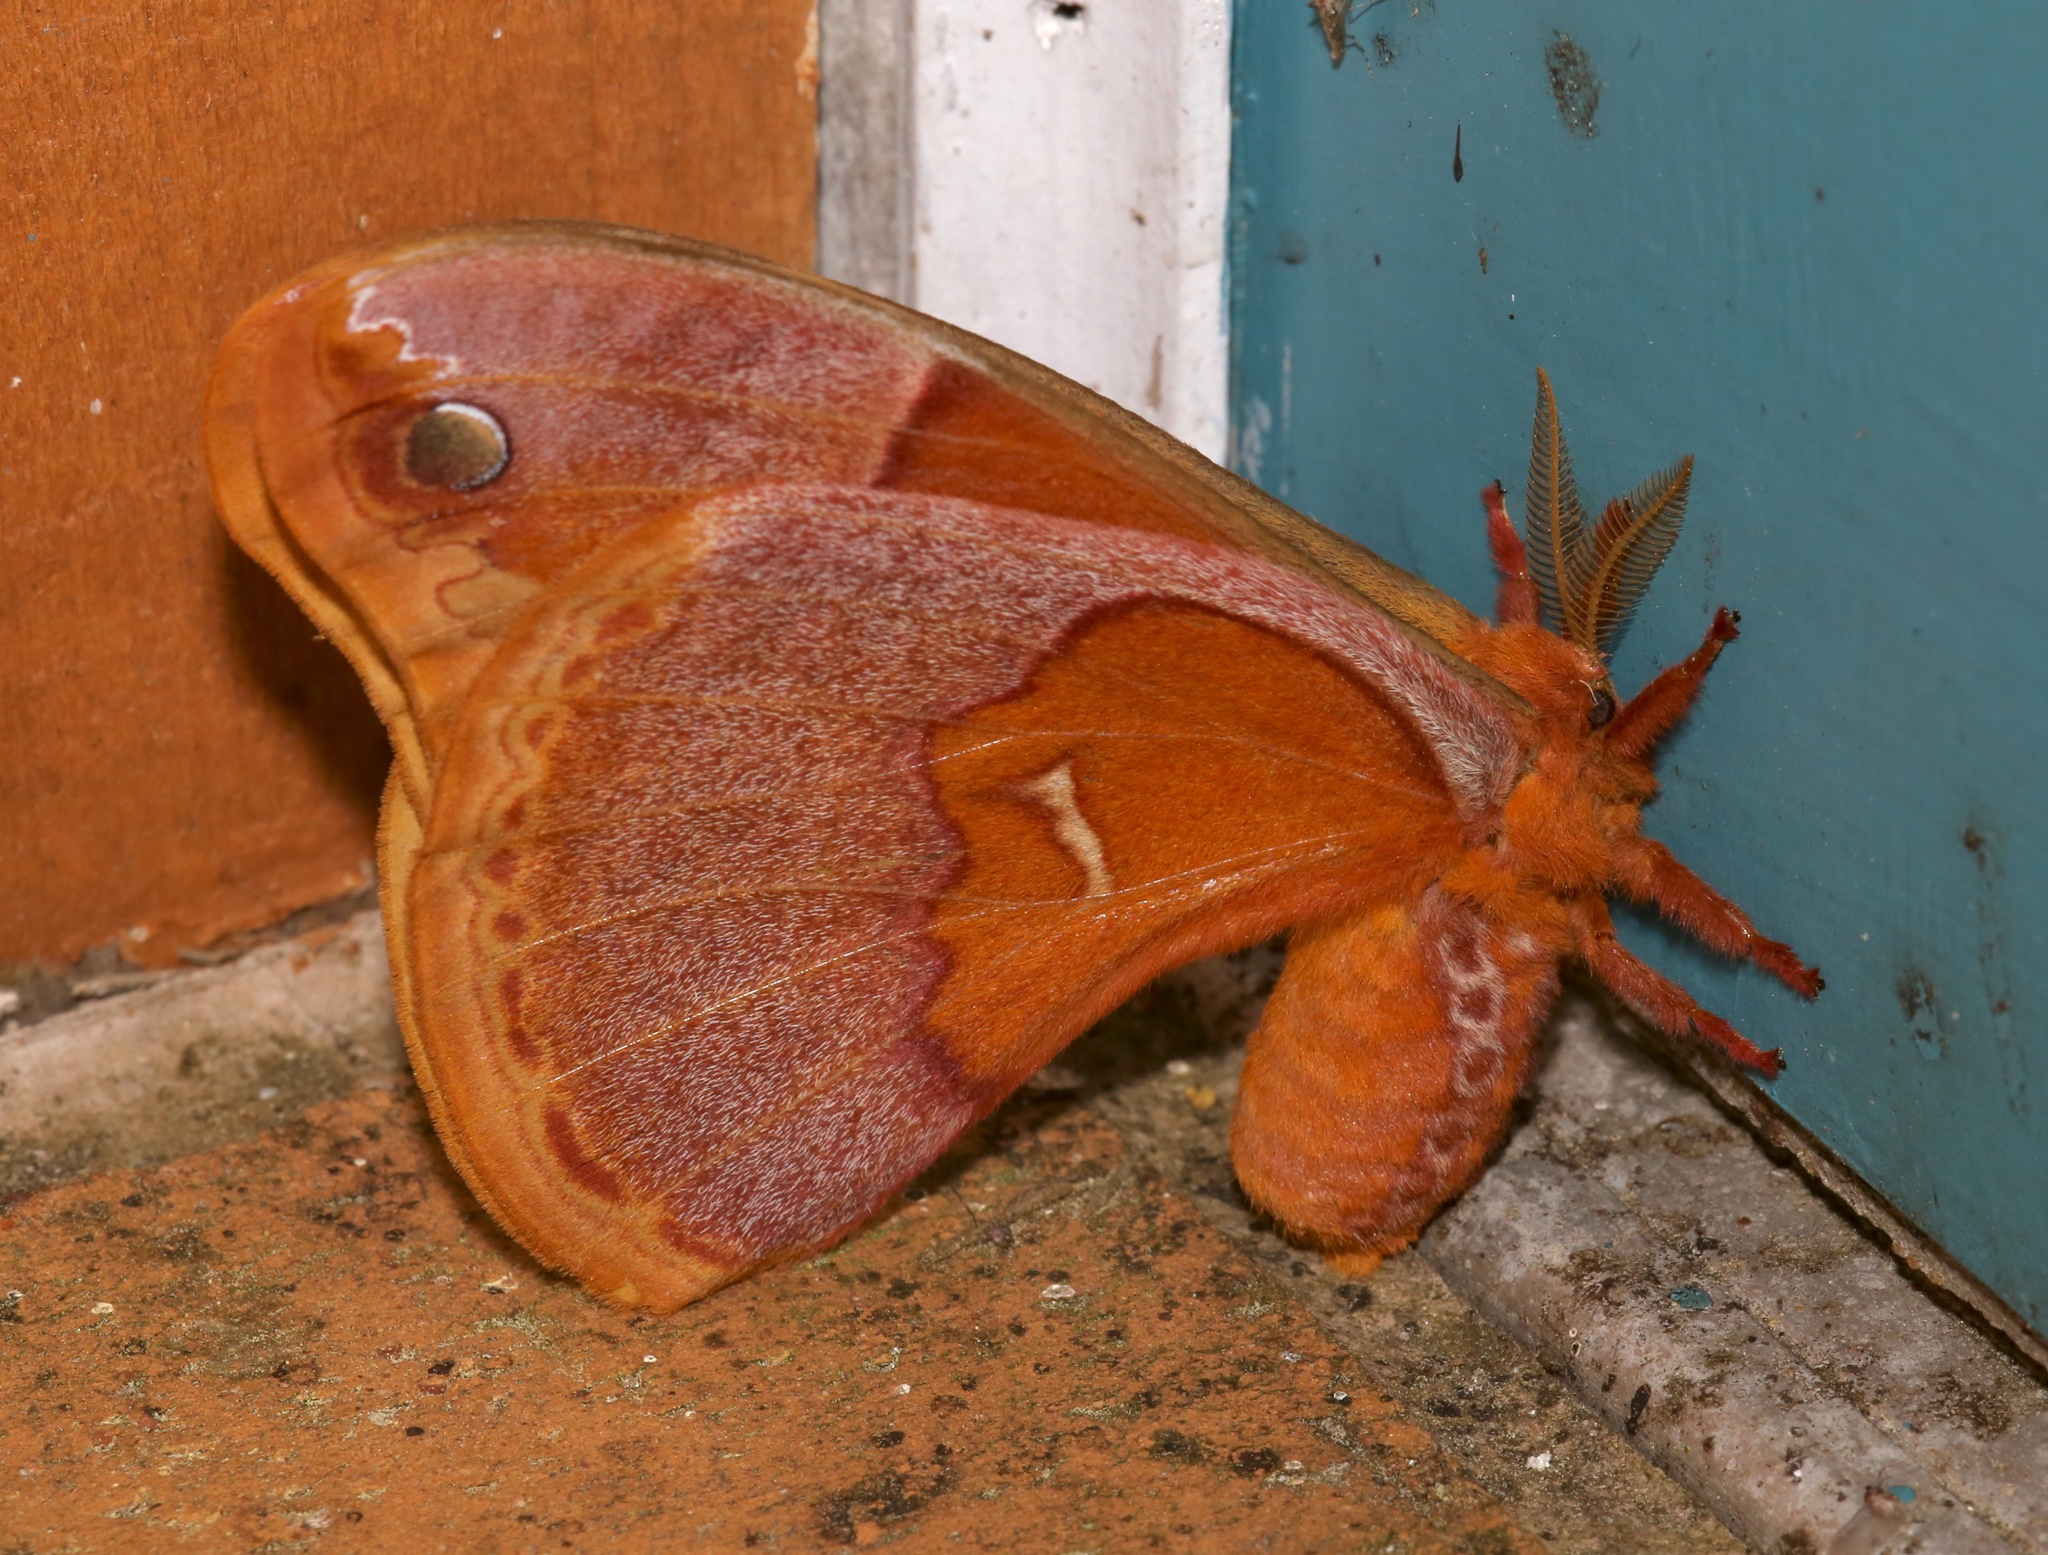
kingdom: Animalia
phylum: Arthropoda
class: Insecta
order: Lepidoptera
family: Saturniidae
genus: Callosamia
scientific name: Callosamia securifera
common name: Sweetbay silkmoth
